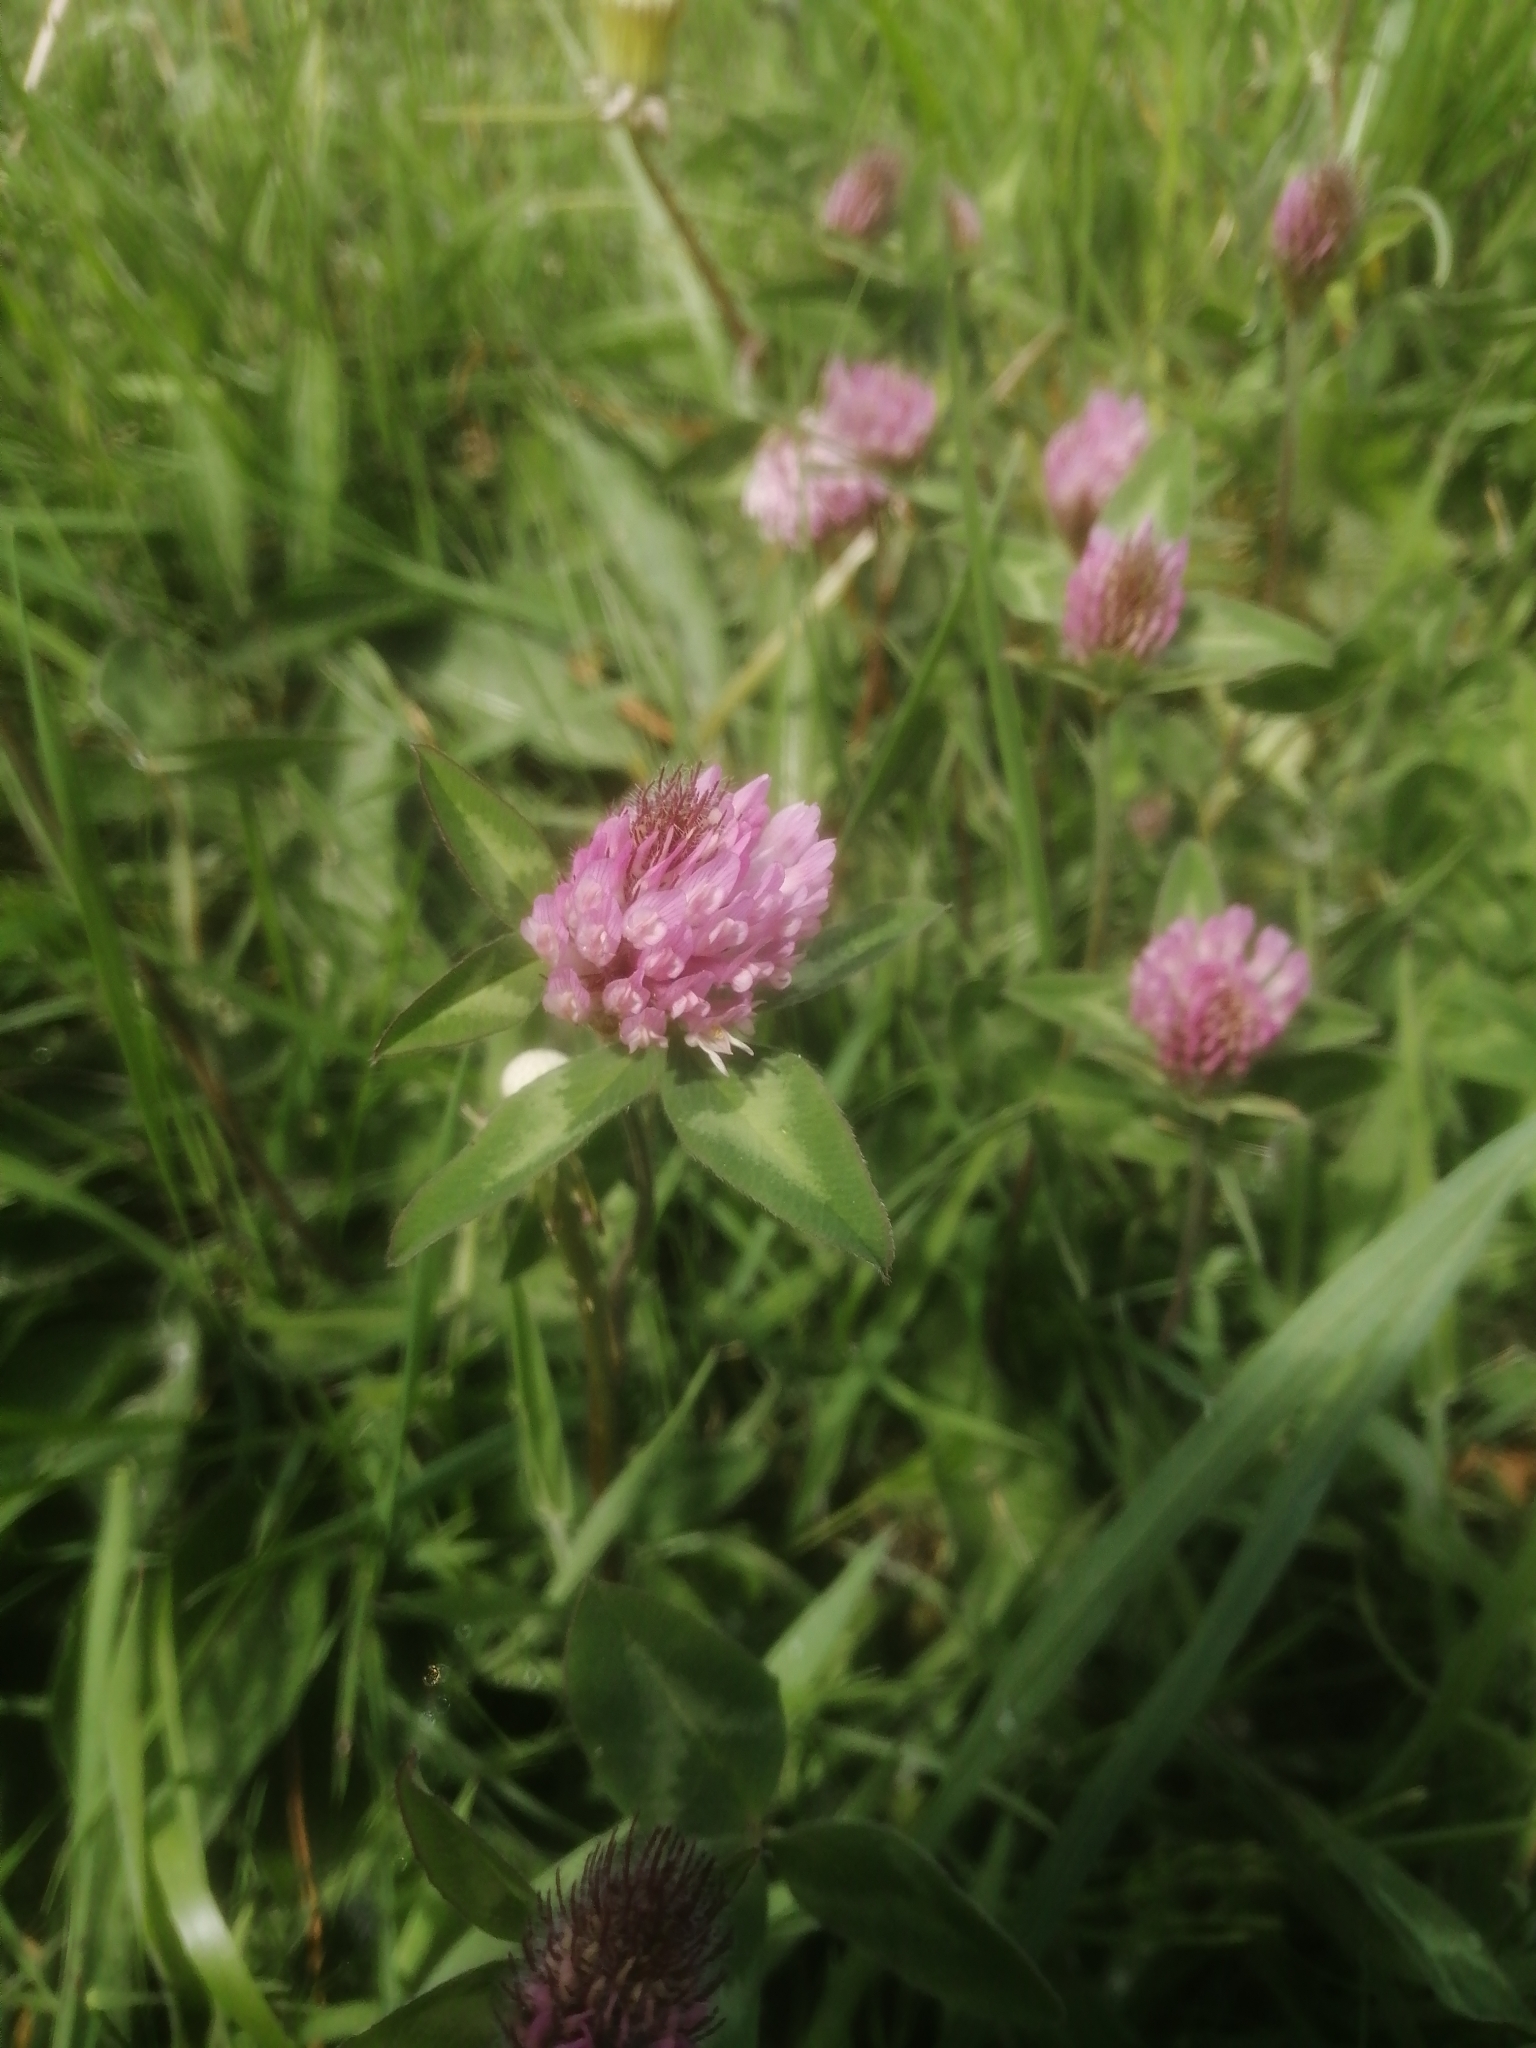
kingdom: Plantae
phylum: Tracheophyta
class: Magnoliopsida
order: Fabales
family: Fabaceae
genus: Trifolium
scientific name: Trifolium pratense
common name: Red clover
